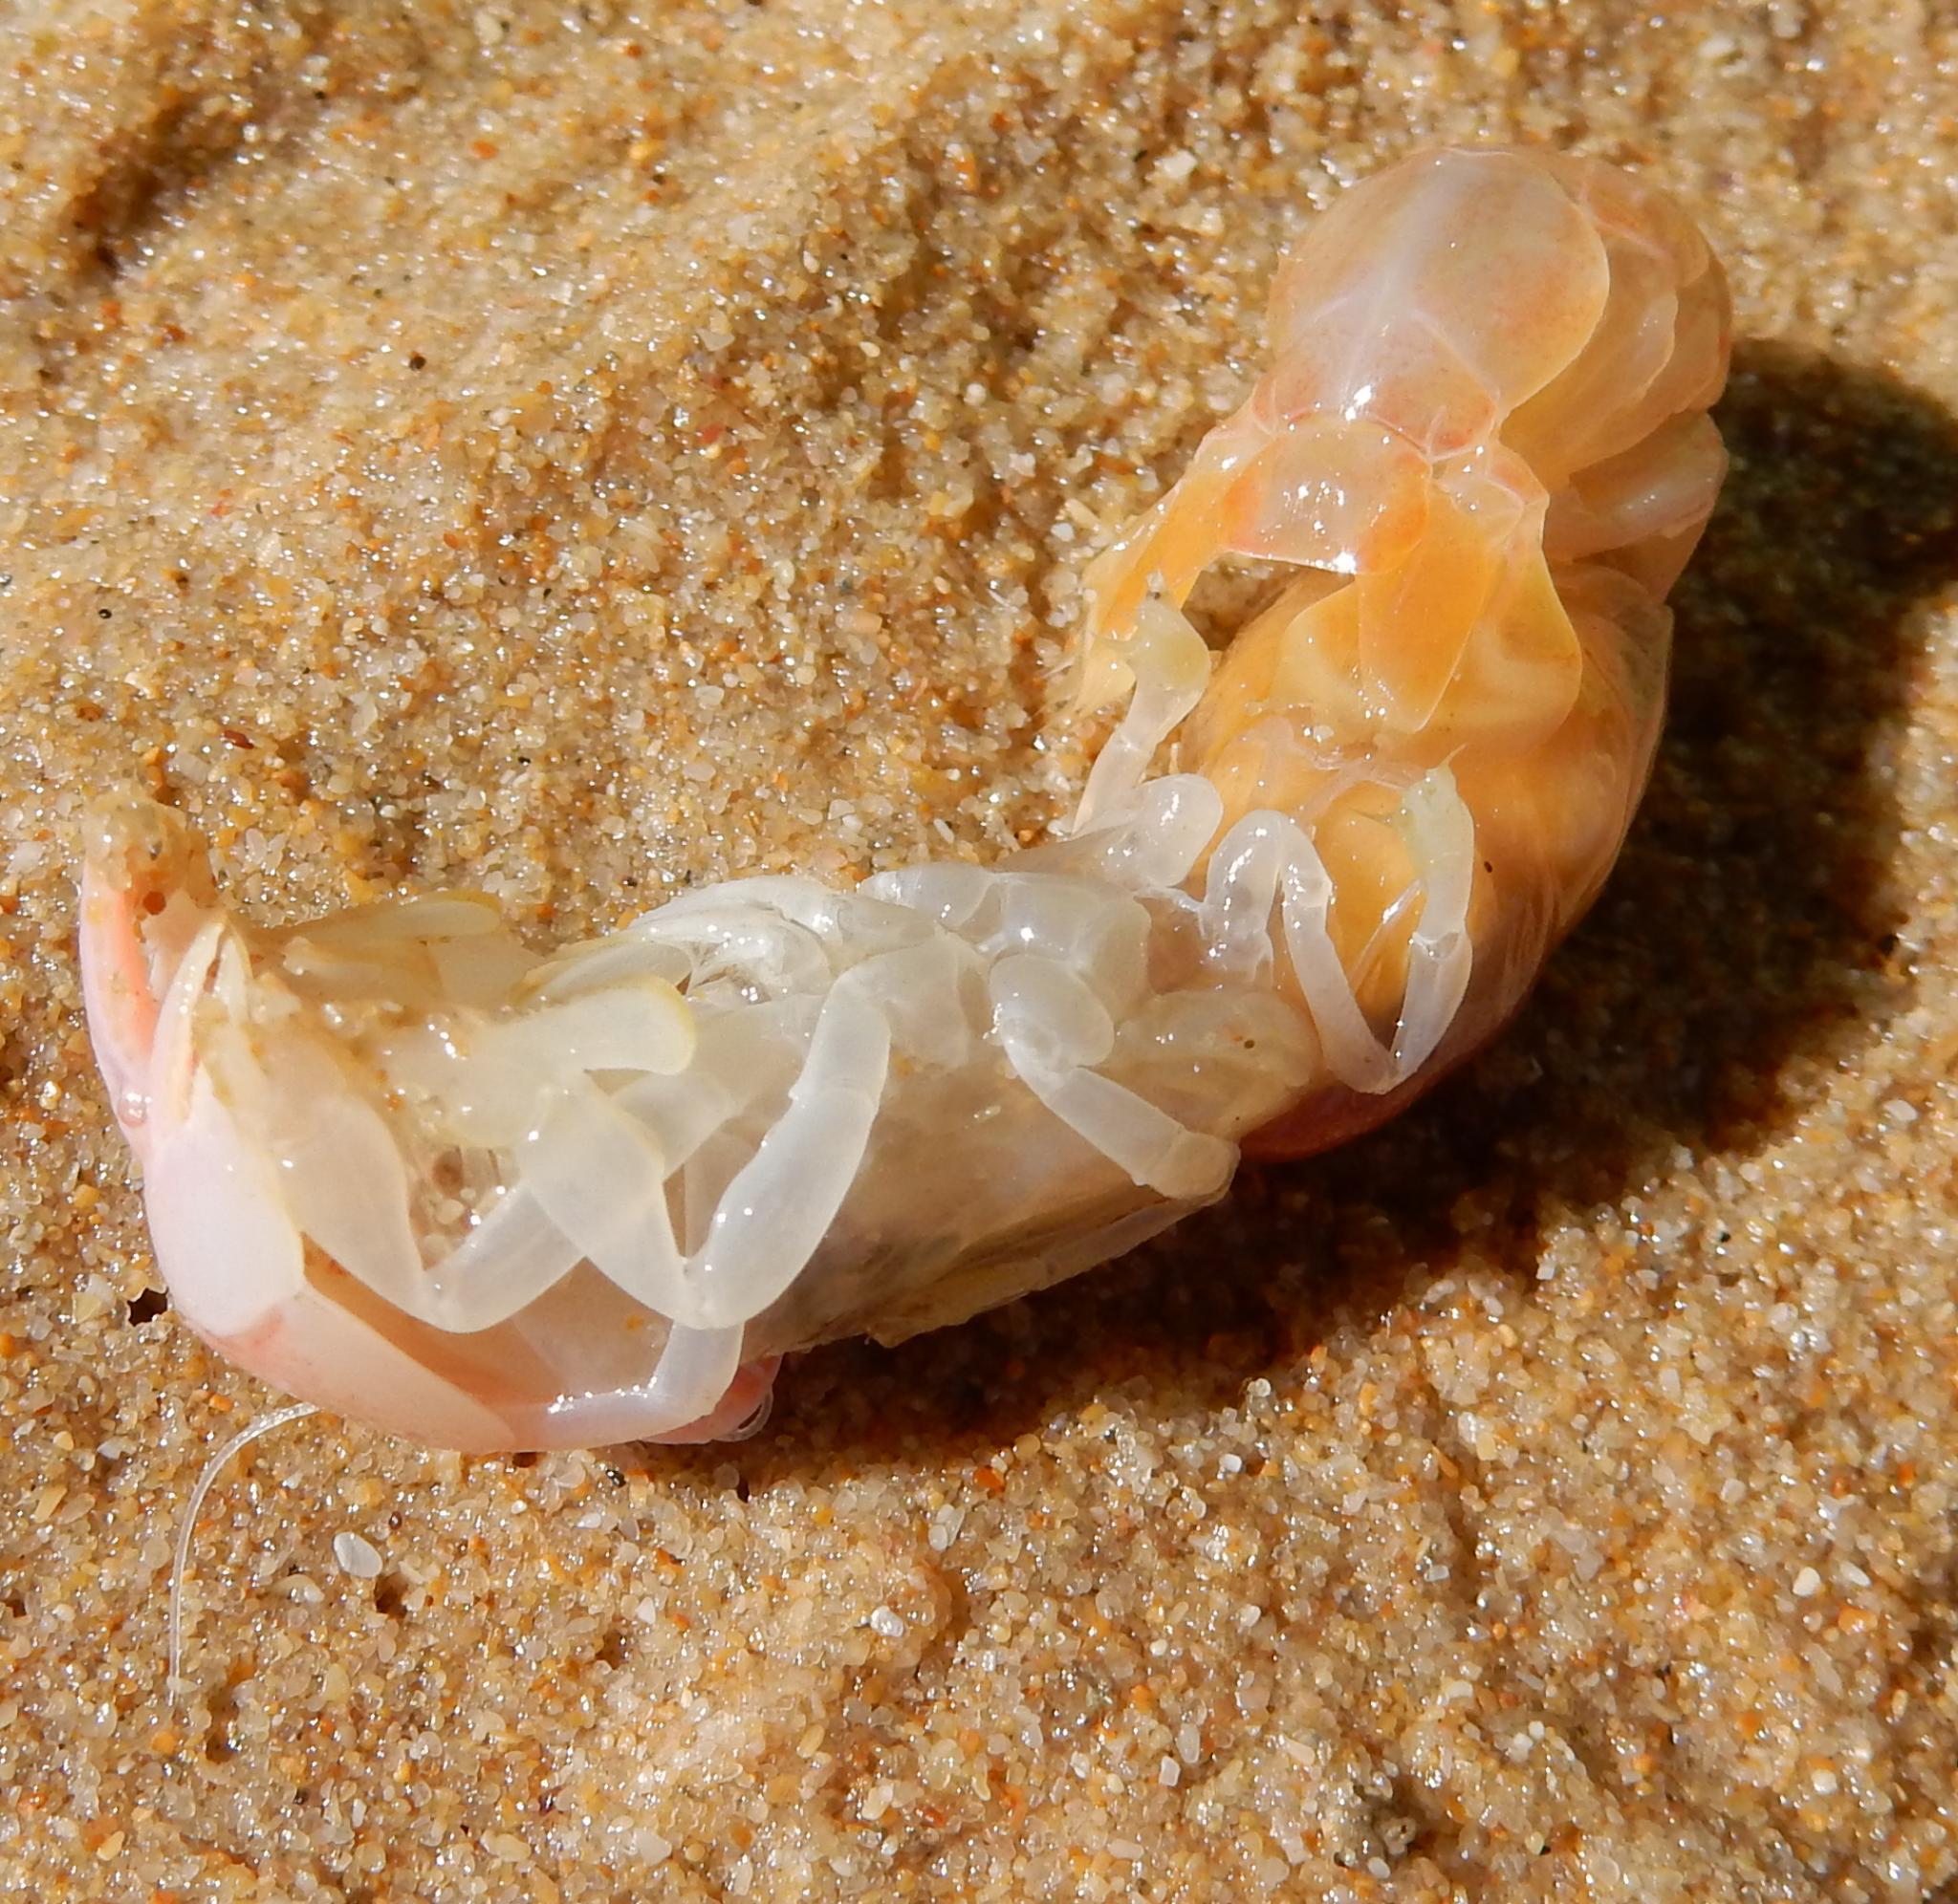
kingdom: Animalia
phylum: Arthropoda
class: Malacostraca
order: Decapoda
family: Callichiridae
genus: Kraussillichirus
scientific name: Kraussillichirus kraussi
